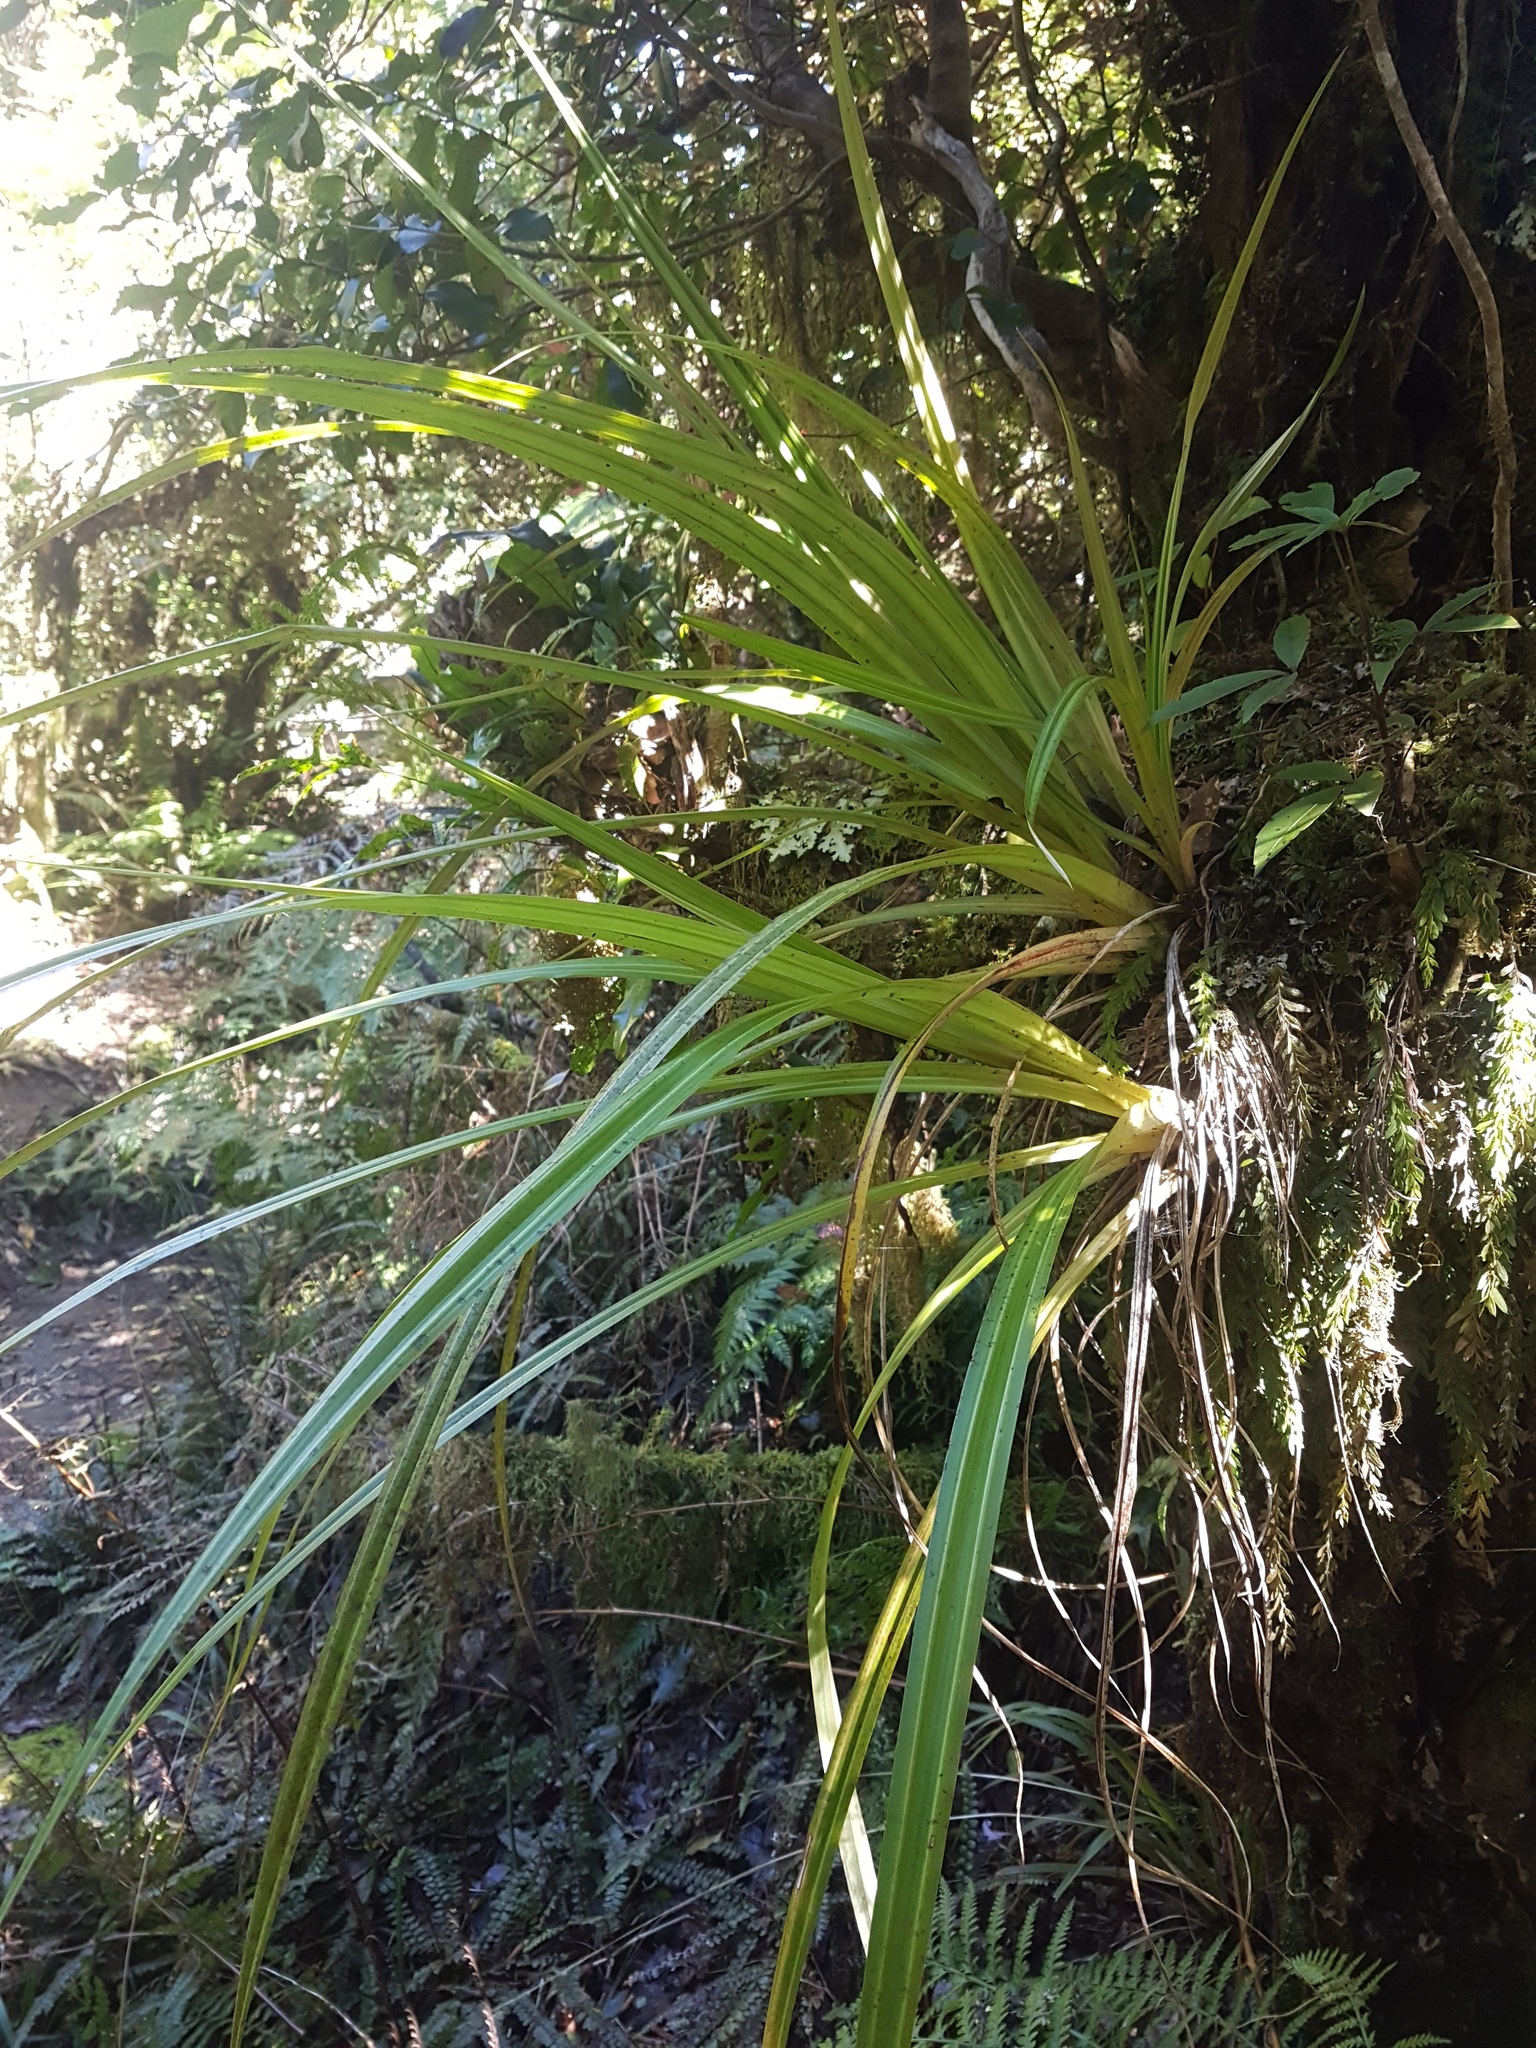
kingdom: Plantae
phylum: Tracheophyta
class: Liliopsida
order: Asparagales
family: Asteliaceae
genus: Astelia
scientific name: Astelia fragrans
